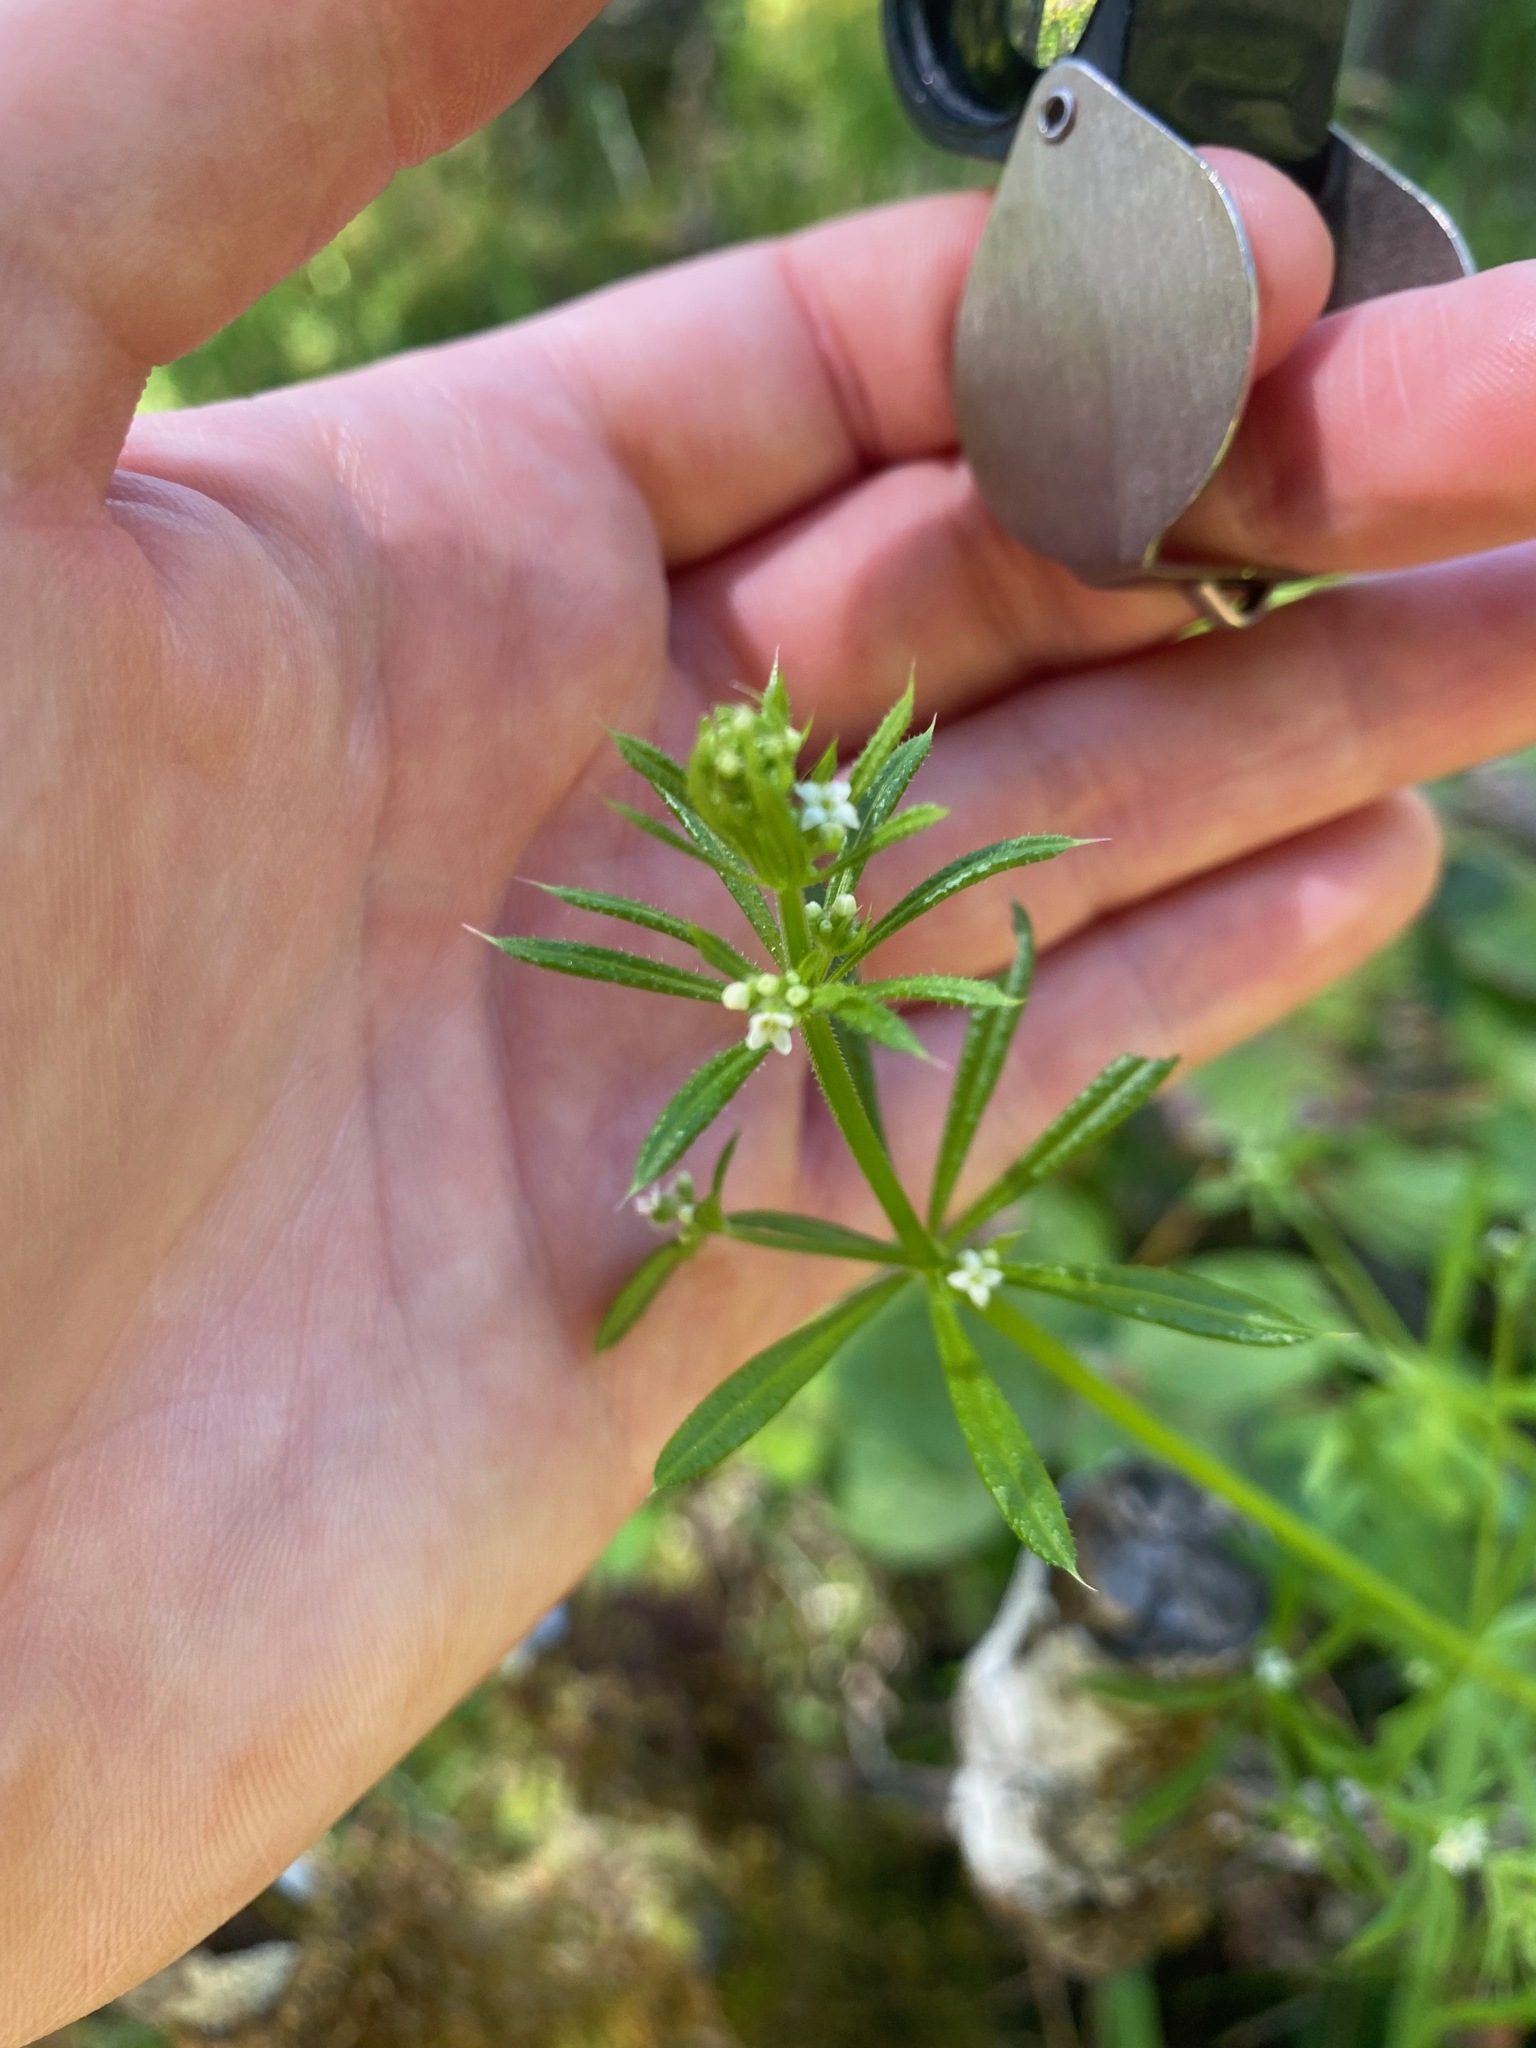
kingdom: Plantae
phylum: Tracheophyta
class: Magnoliopsida
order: Gentianales
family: Rubiaceae
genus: Galium
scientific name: Galium aparine
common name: Cleavers
